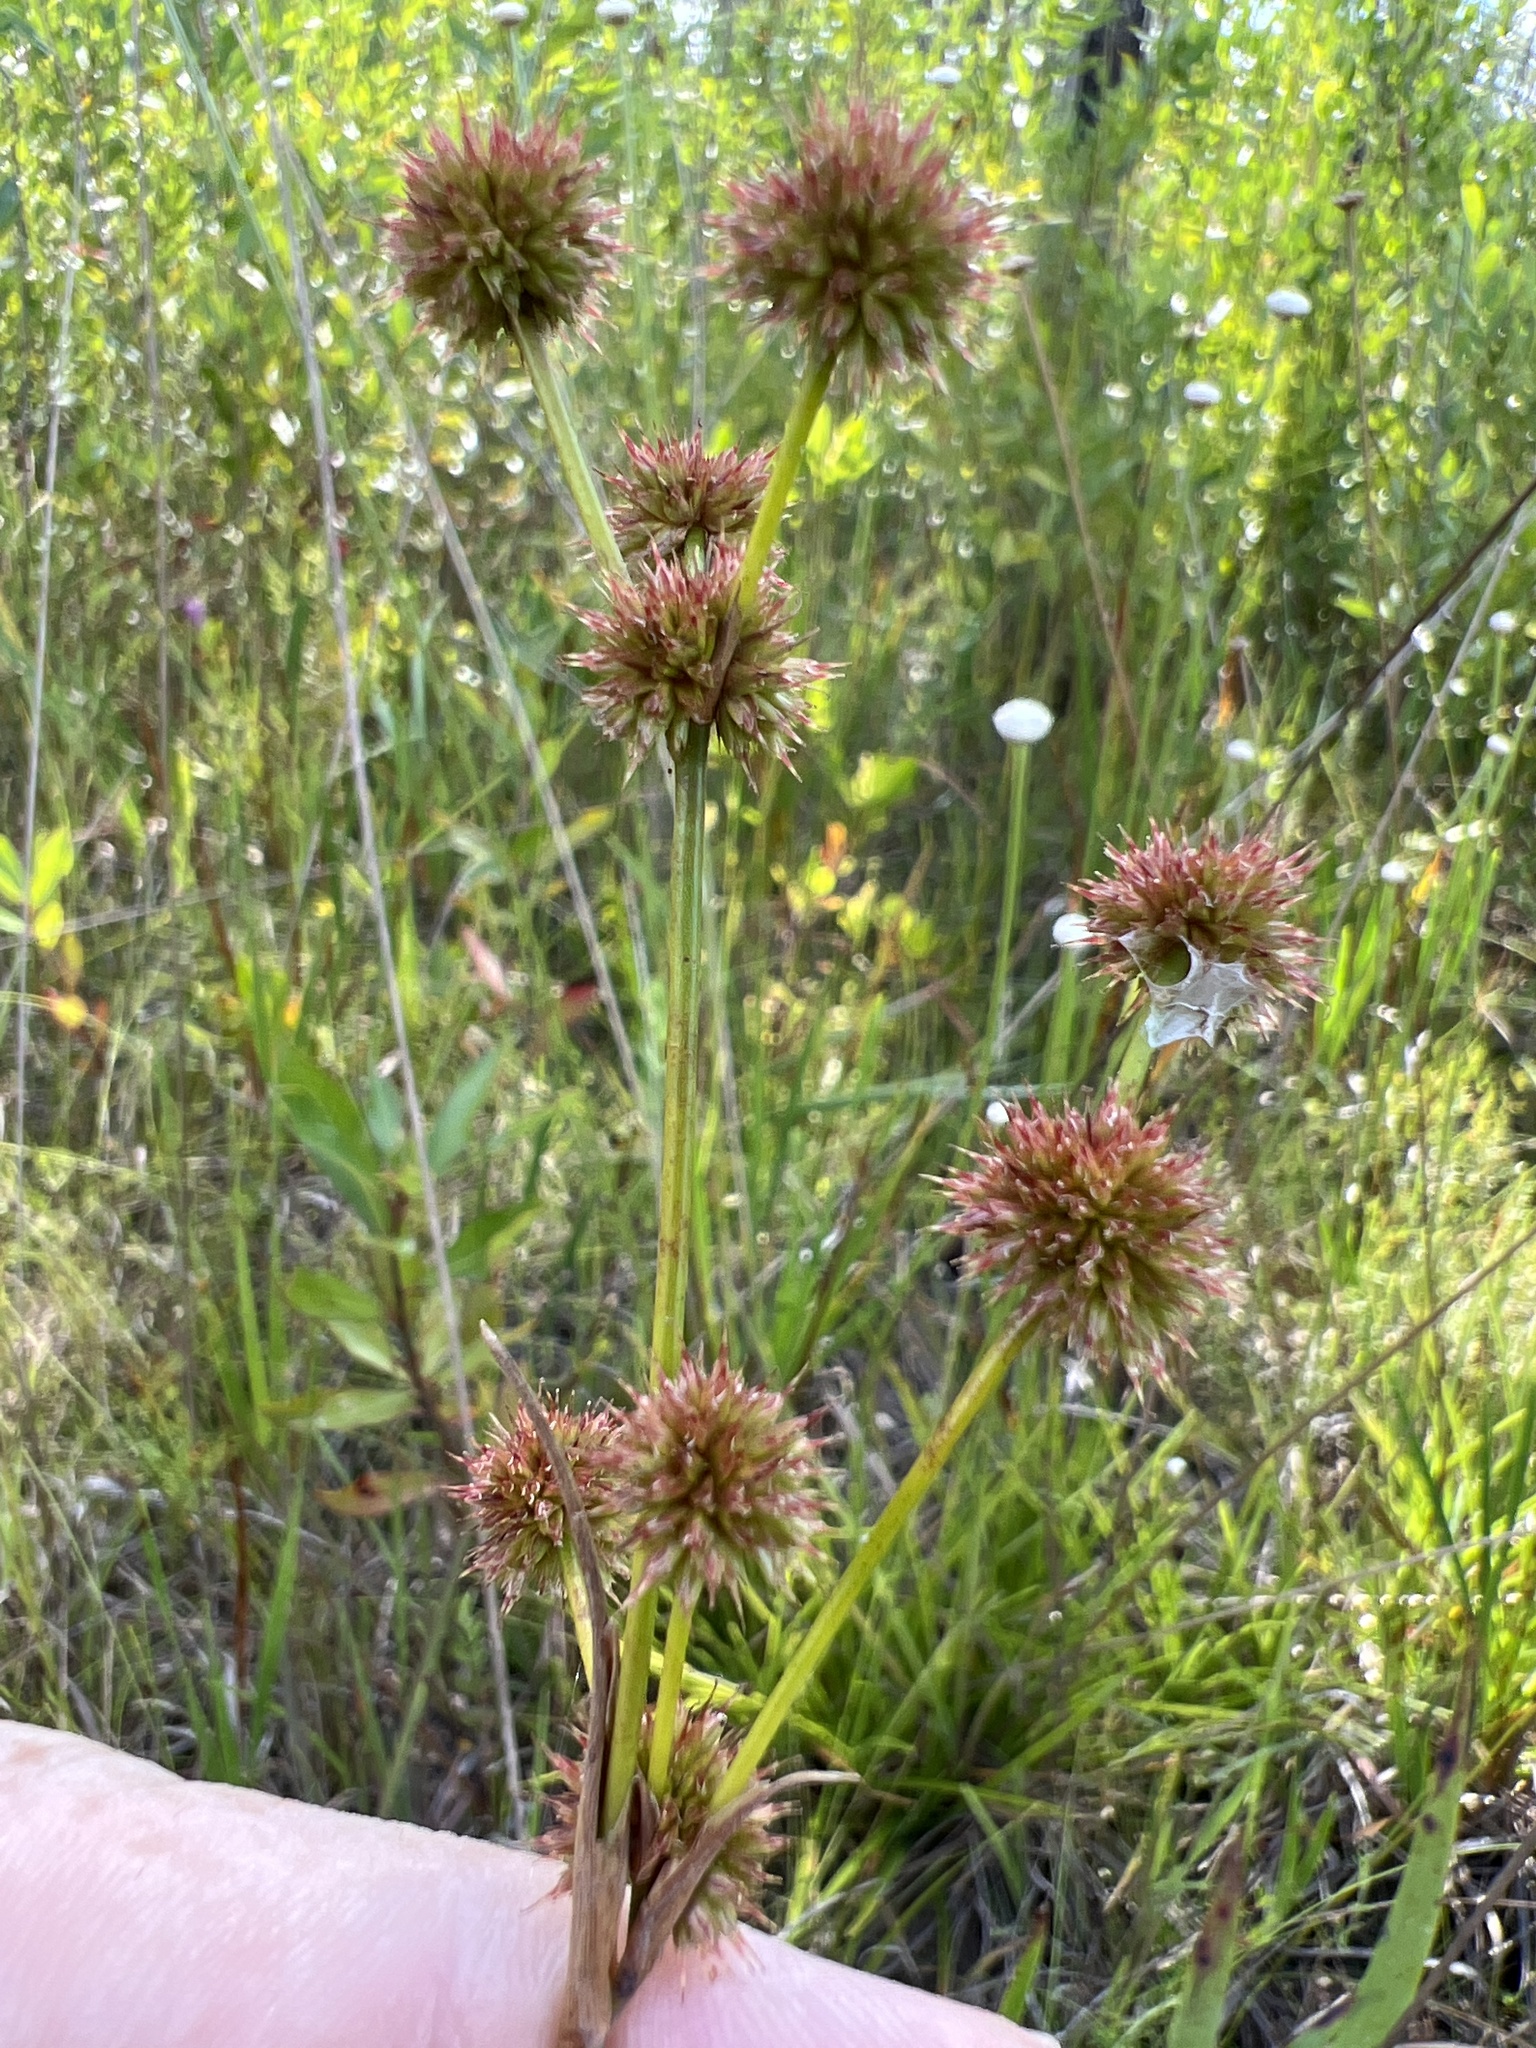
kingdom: Plantae
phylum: Tracheophyta
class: Liliopsida
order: Poales
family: Juncaceae
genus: Juncus
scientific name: Juncus scirpoides
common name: Needlepod rush
